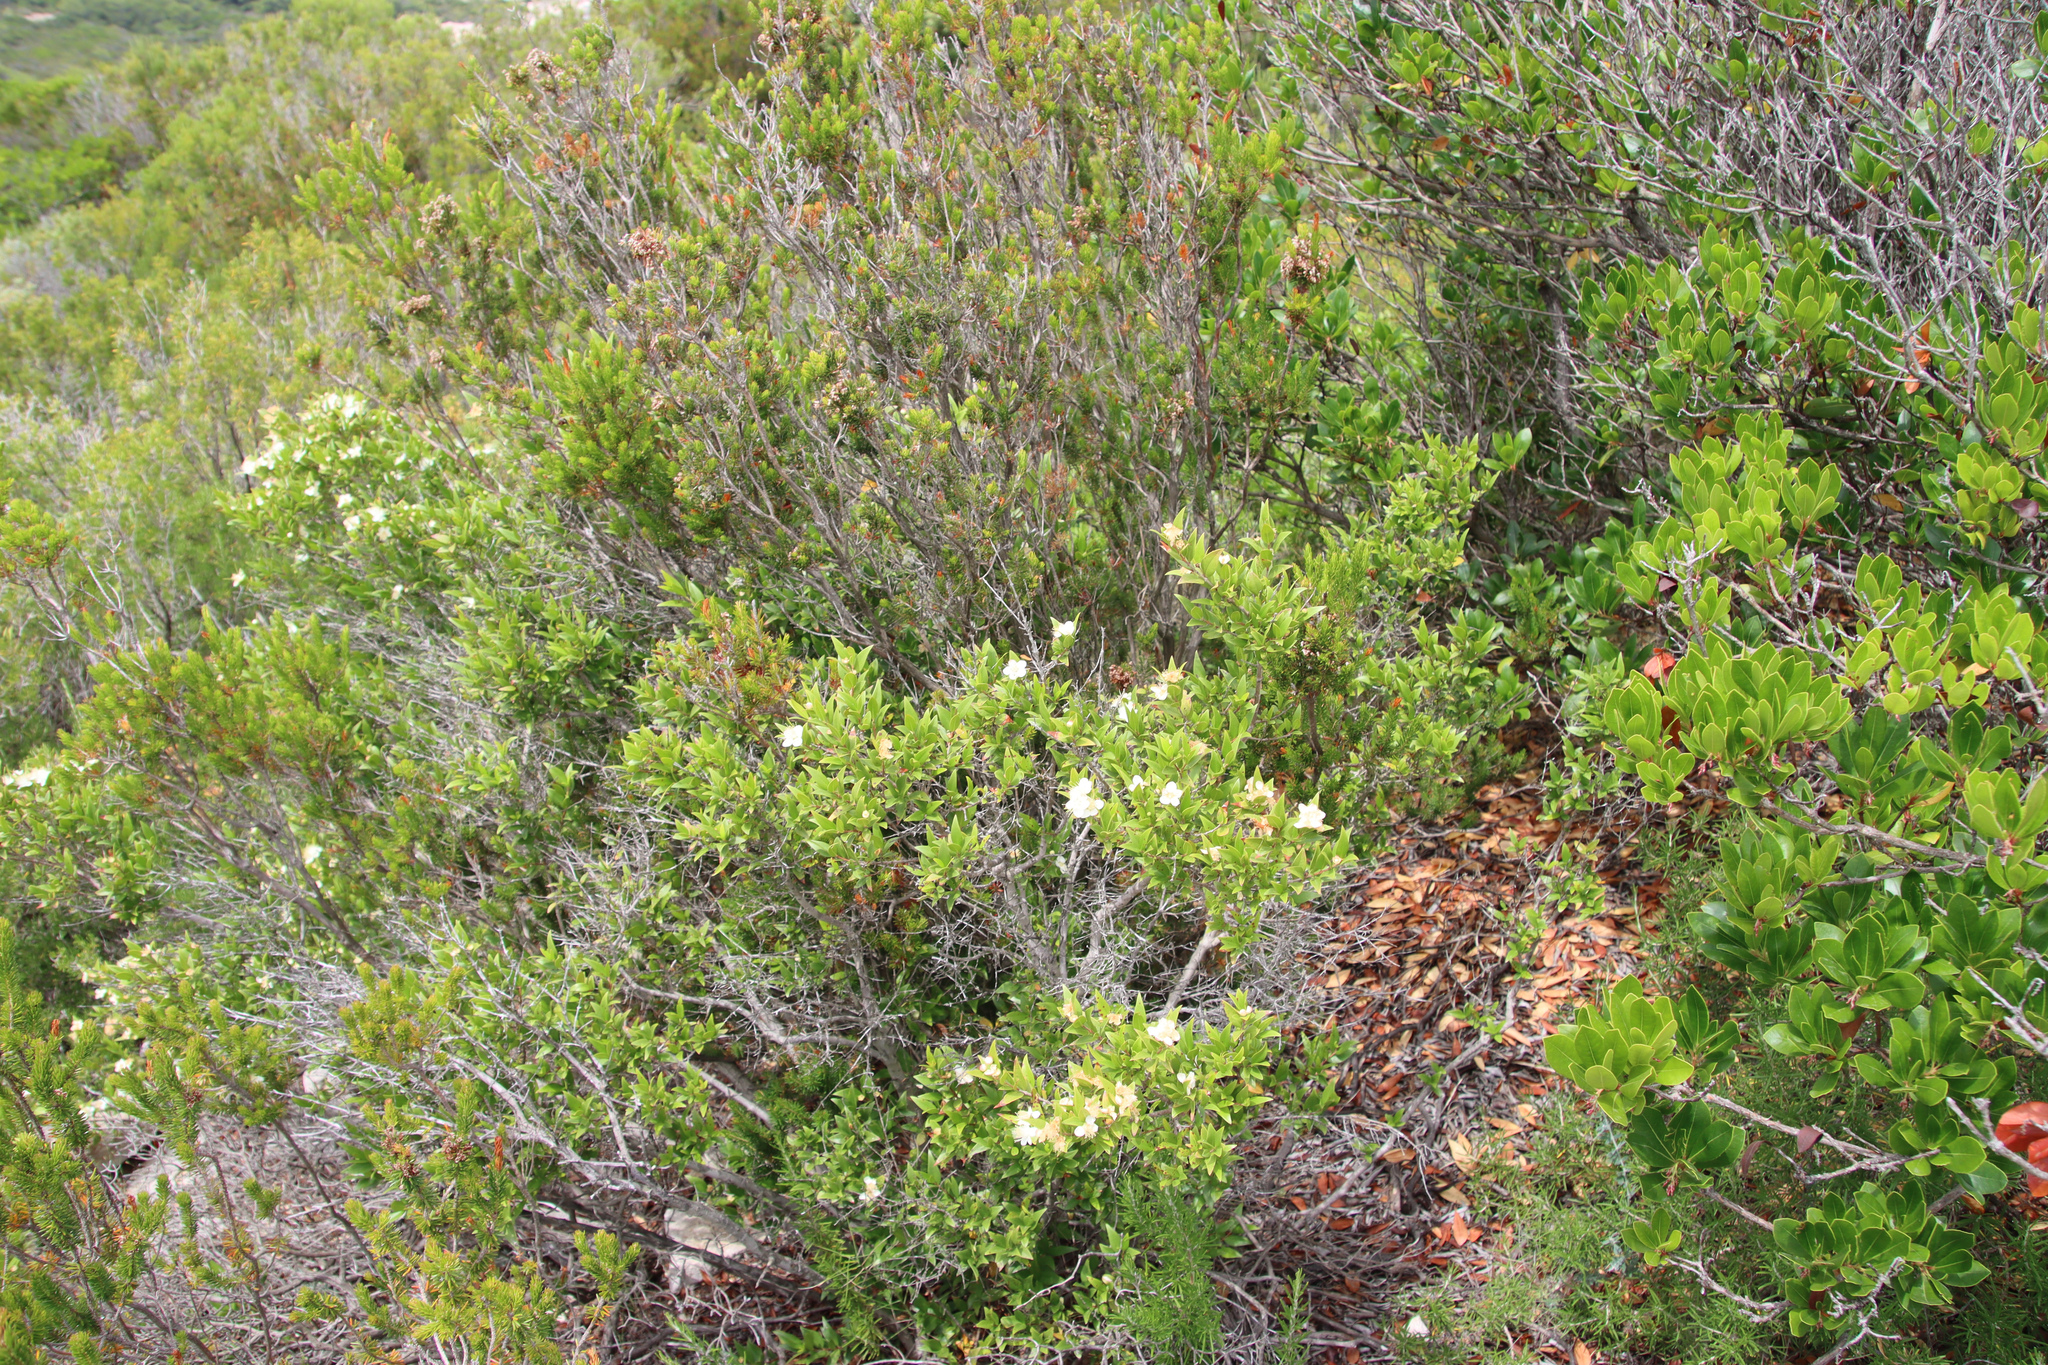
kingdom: Plantae
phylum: Tracheophyta
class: Magnoliopsida
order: Myrtales
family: Myrtaceae
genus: Myrtus
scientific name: Myrtus communis
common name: Myrtle
